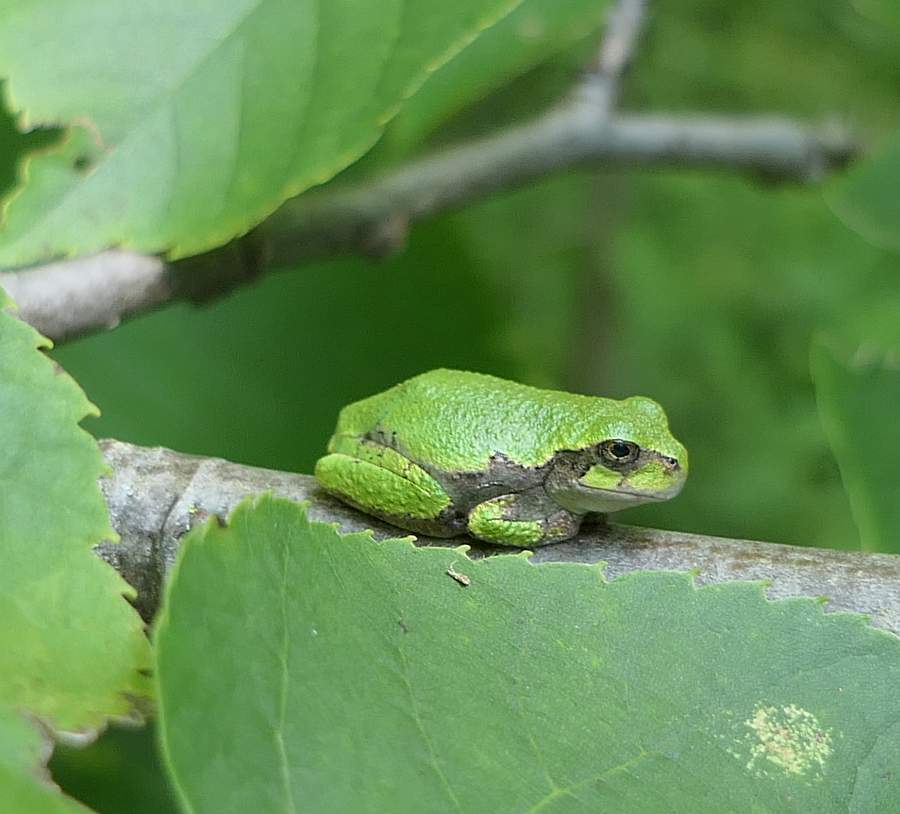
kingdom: Animalia
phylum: Chordata
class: Amphibia
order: Anura
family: Hylidae
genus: Dryophytes
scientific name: Dryophytes versicolor
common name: Gray treefrog
